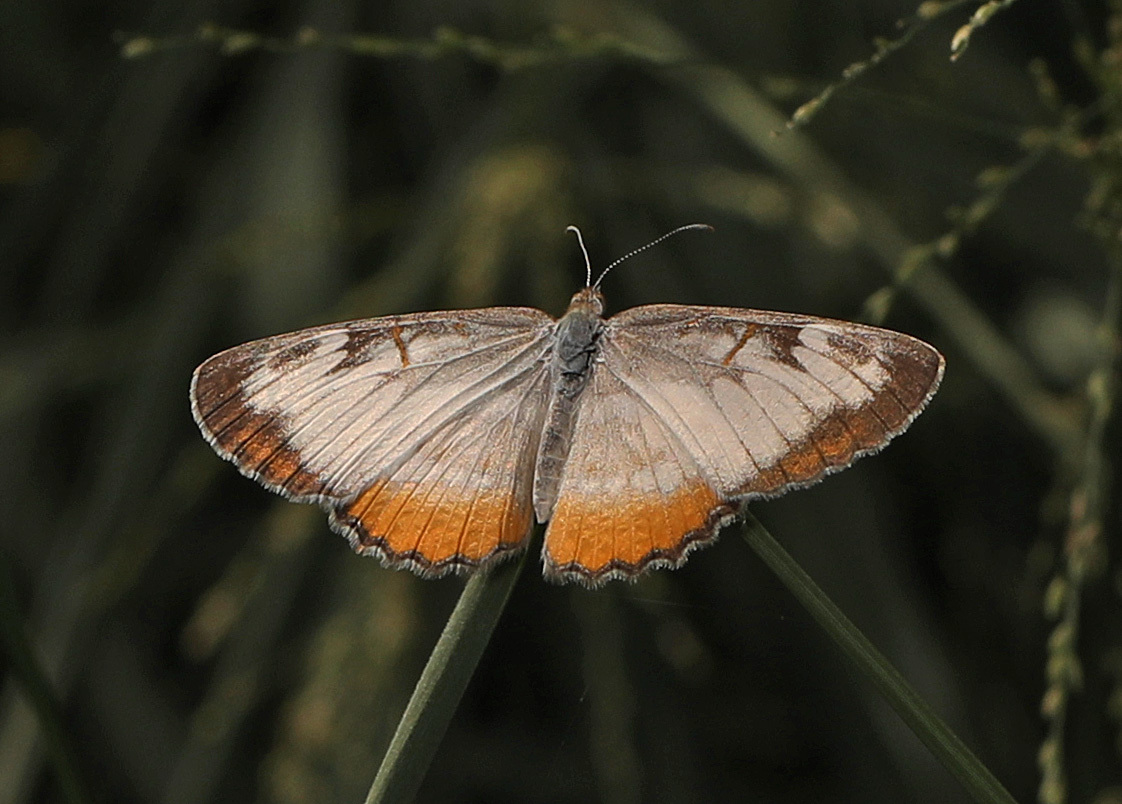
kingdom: Animalia
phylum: Arthropoda
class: Insecta
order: Lepidoptera
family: Nymphalidae
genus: Mestra
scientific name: Mestra amymone
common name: Common mestra
